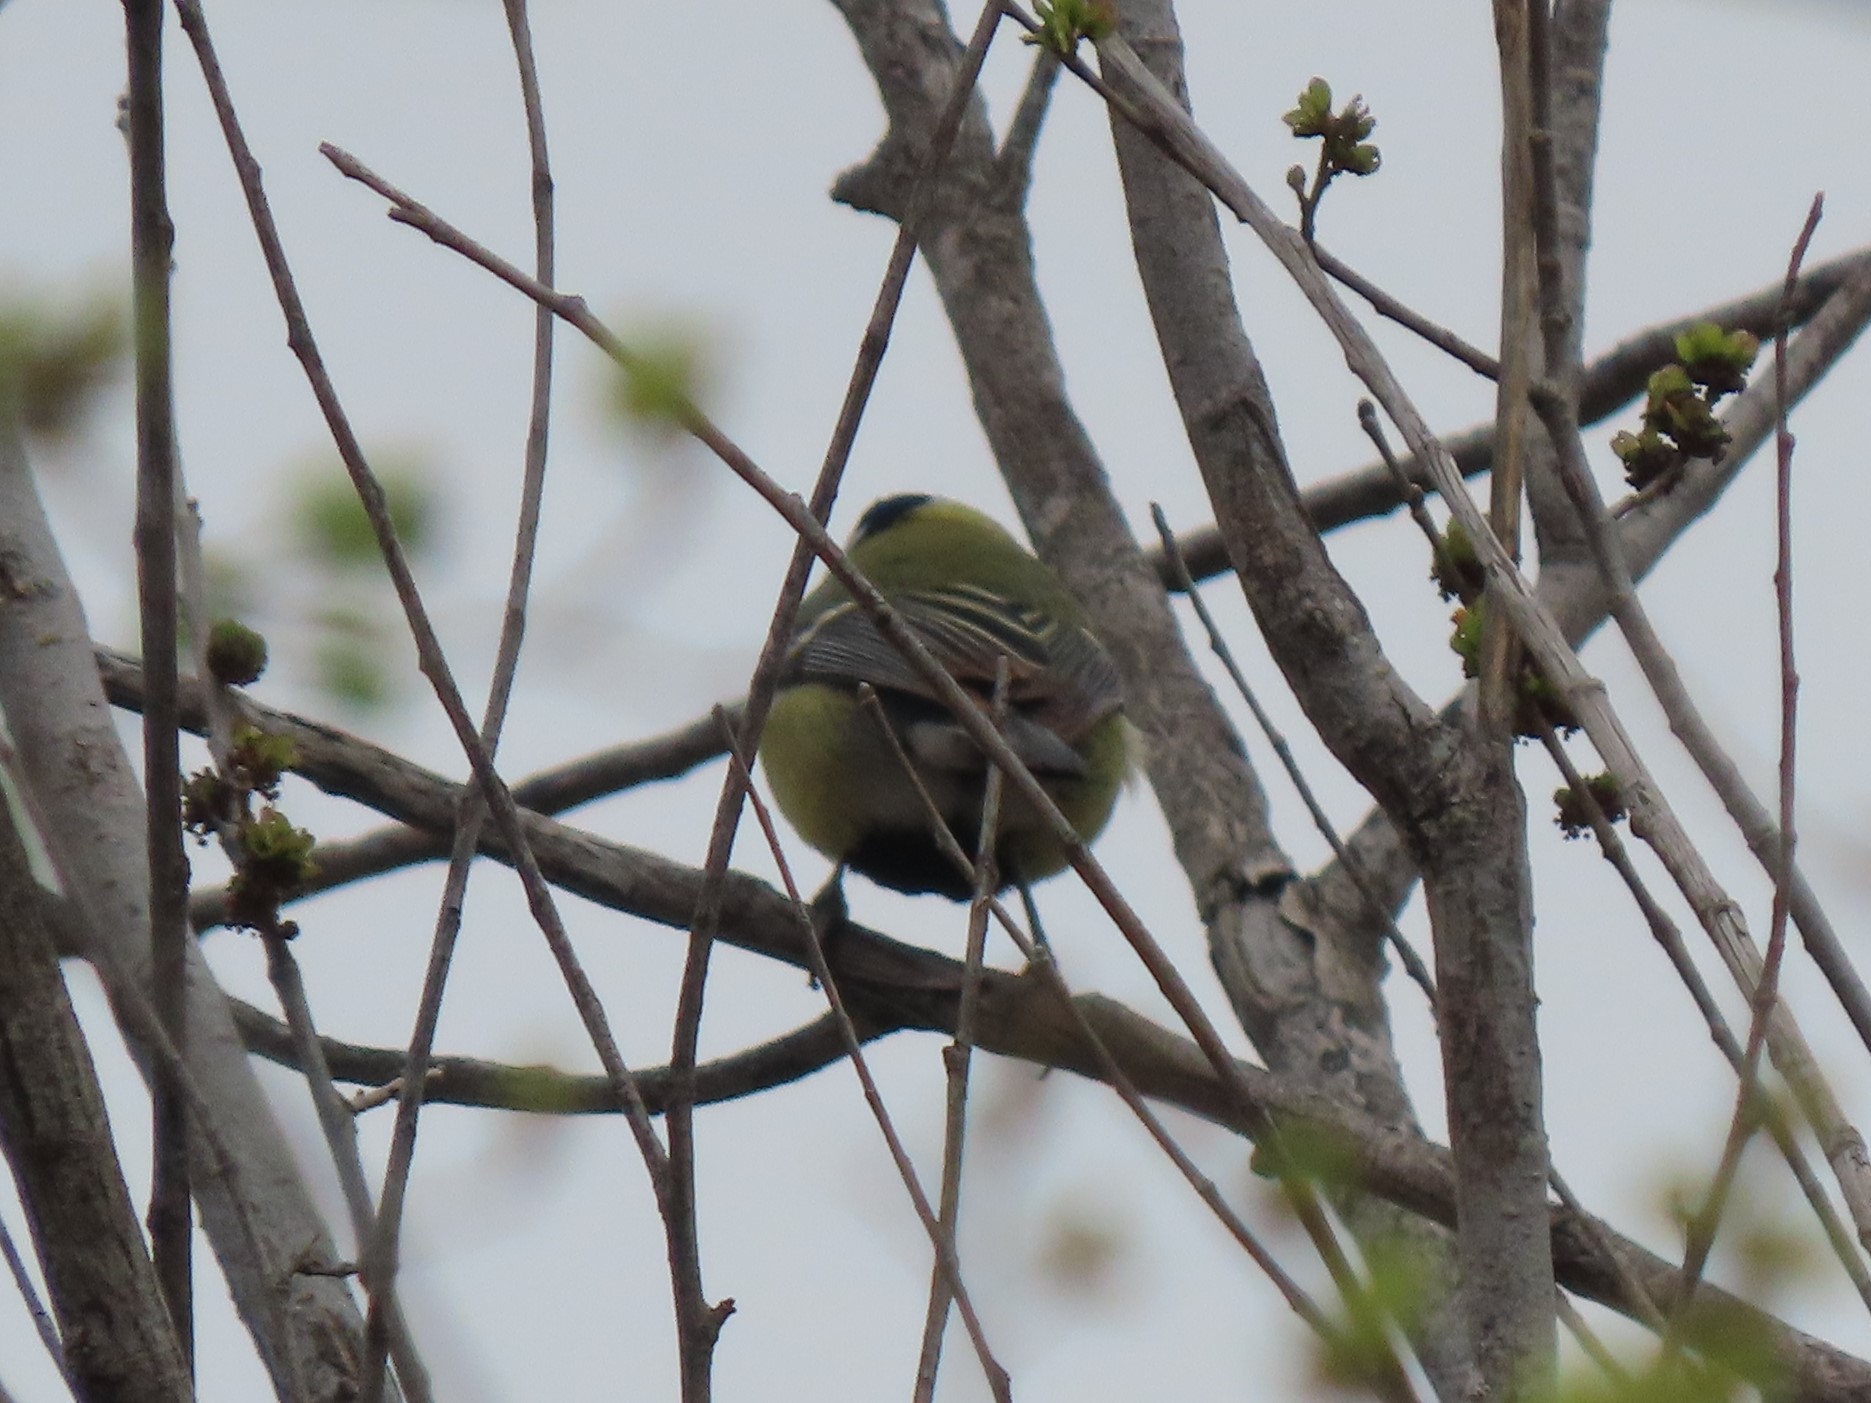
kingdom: Animalia
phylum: Chordata
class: Aves
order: Passeriformes
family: Paridae
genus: Parus
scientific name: Parus major
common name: Great tit
